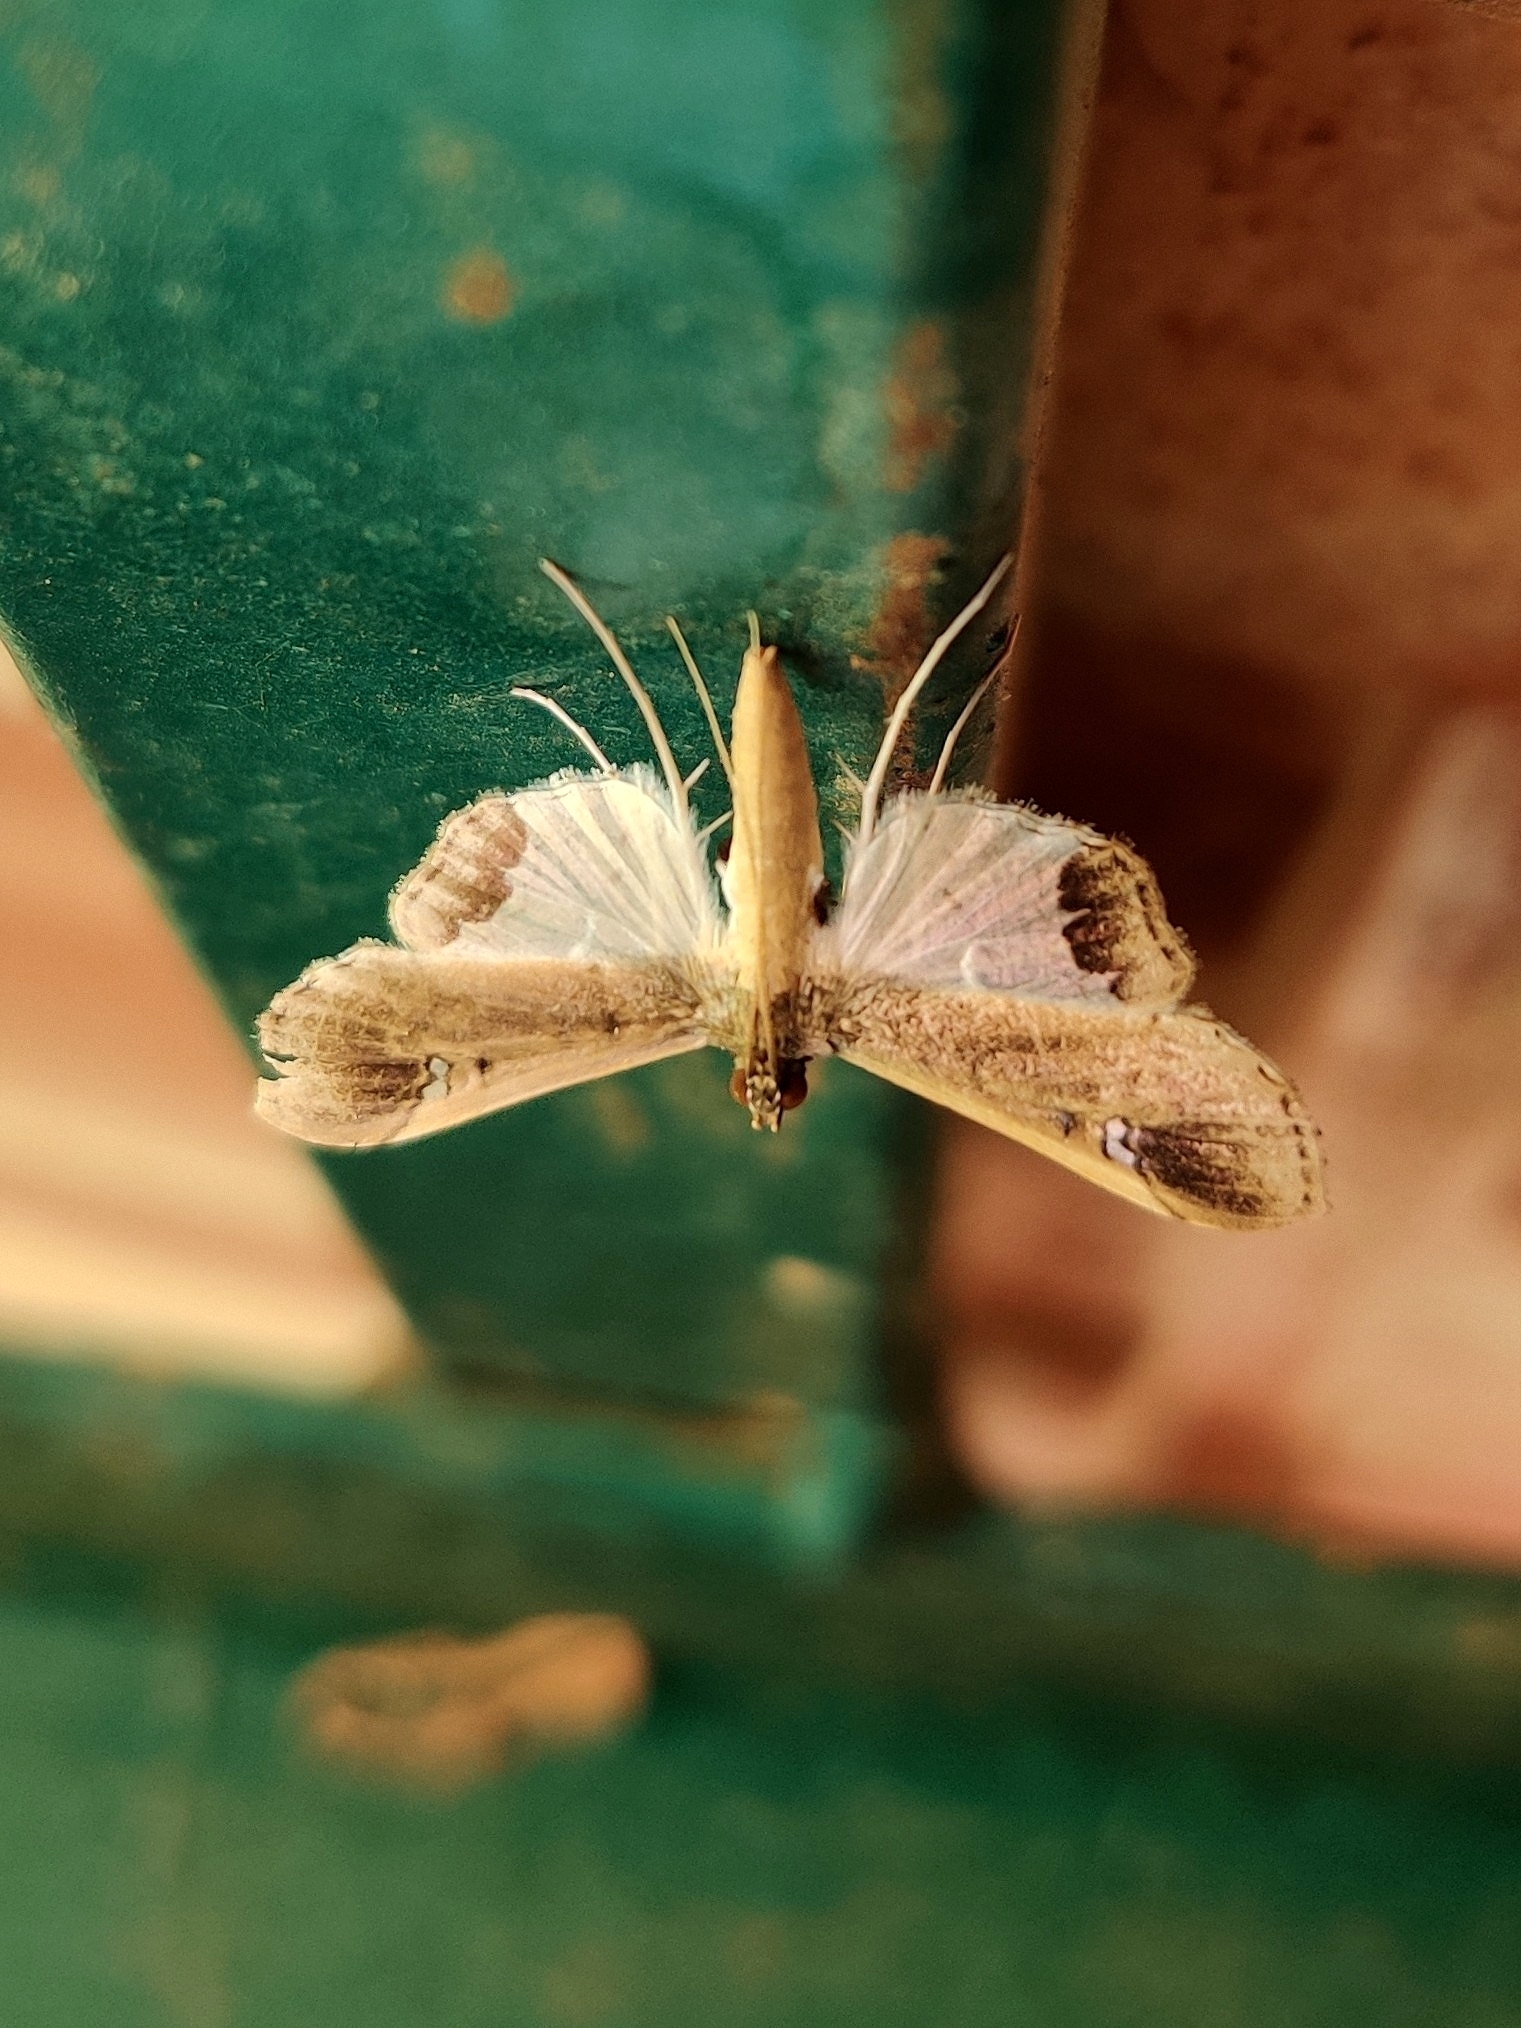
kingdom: Animalia
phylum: Arthropoda
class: Insecta
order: Lepidoptera
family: Crambidae
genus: Maruca
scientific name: Maruca amboinalis
